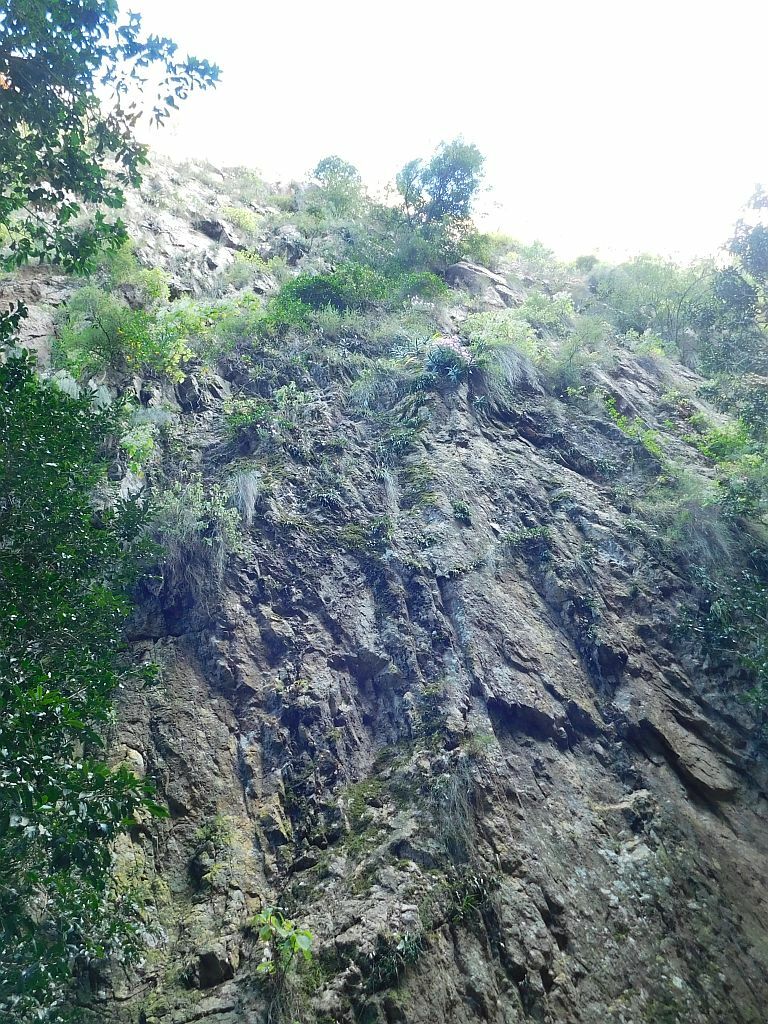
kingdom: Plantae
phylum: Tracheophyta
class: Magnoliopsida
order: Caryophyllales
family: Aizoaceae
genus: Roosia
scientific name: Roosia lucilleae
